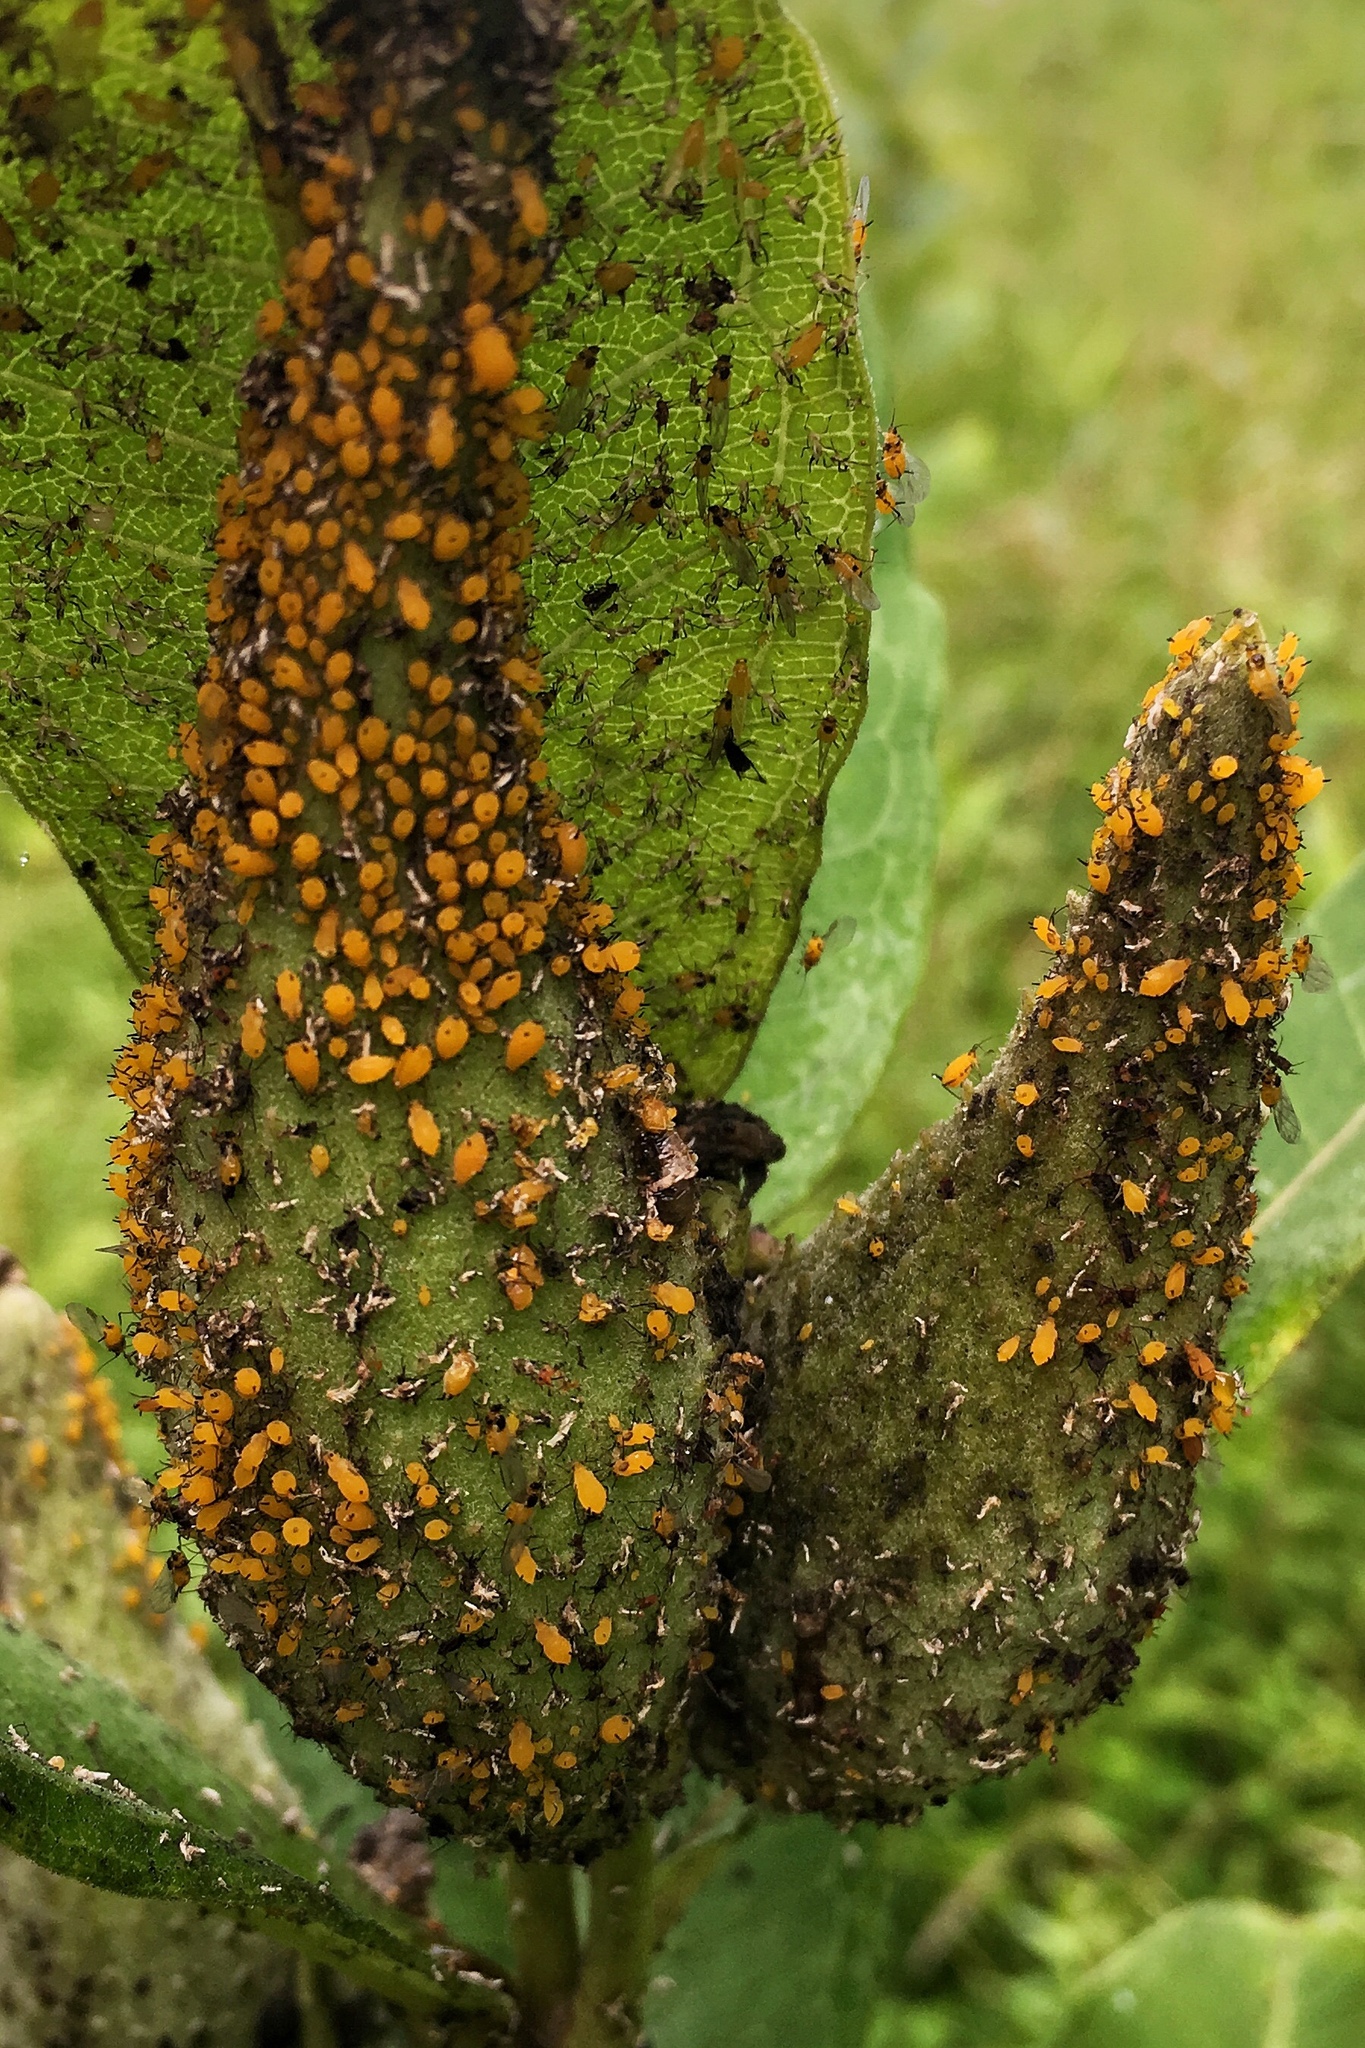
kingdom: Animalia
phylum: Arthropoda
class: Insecta
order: Hemiptera
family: Aphididae
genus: Aphis
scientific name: Aphis nerii
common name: Oleander aphid
